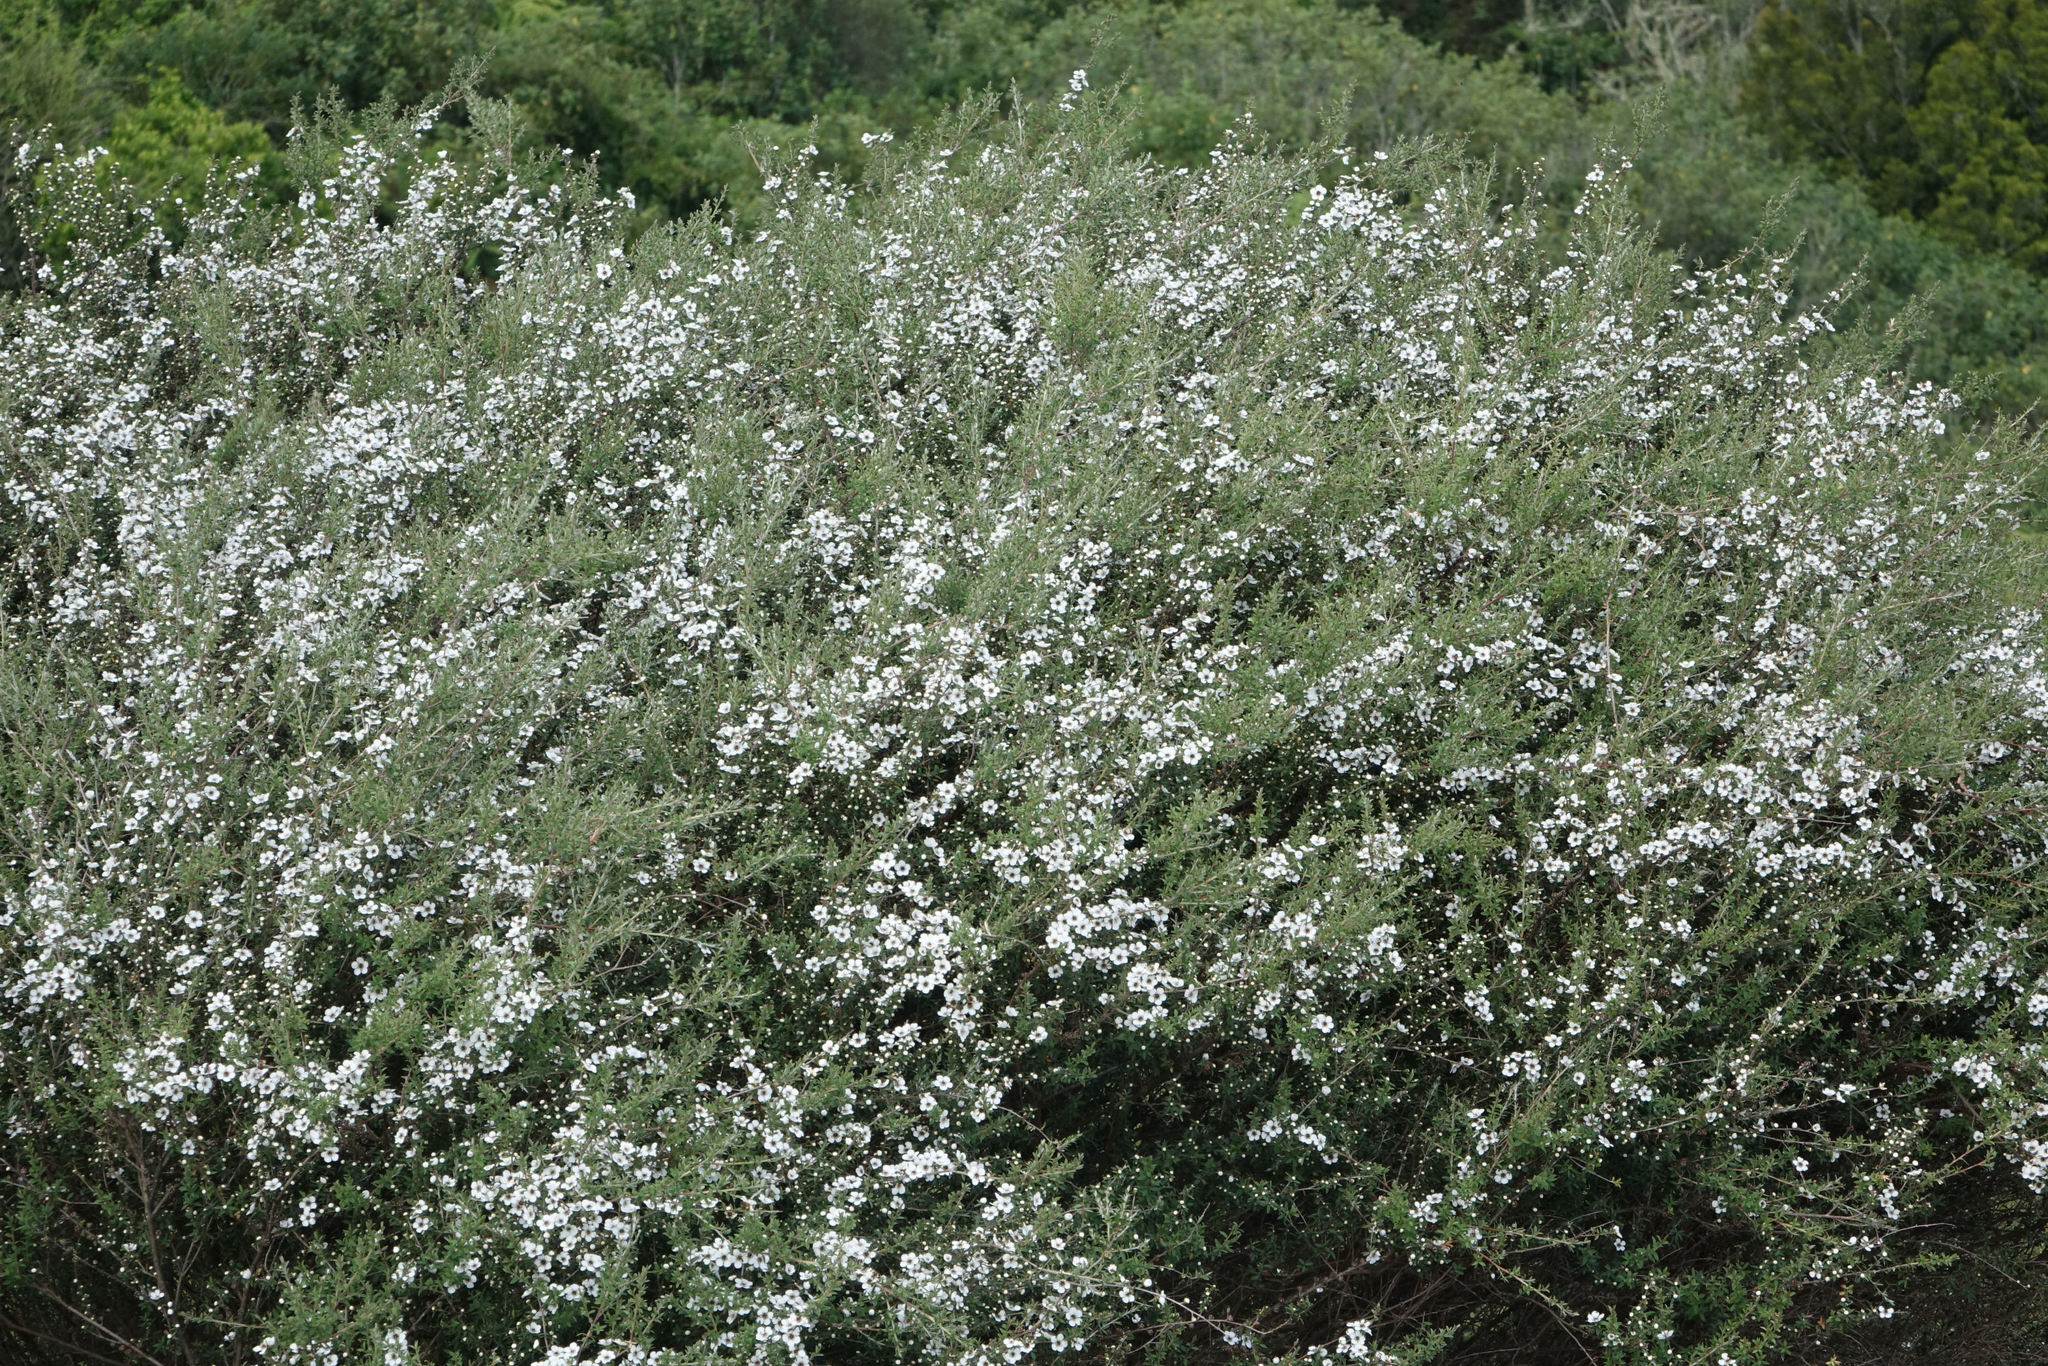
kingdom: Plantae
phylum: Tracheophyta
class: Magnoliopsida
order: Myrtales
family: Myrtaceae
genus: Leptospermum
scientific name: Leptospermum scoparium
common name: Broom tea-tree
